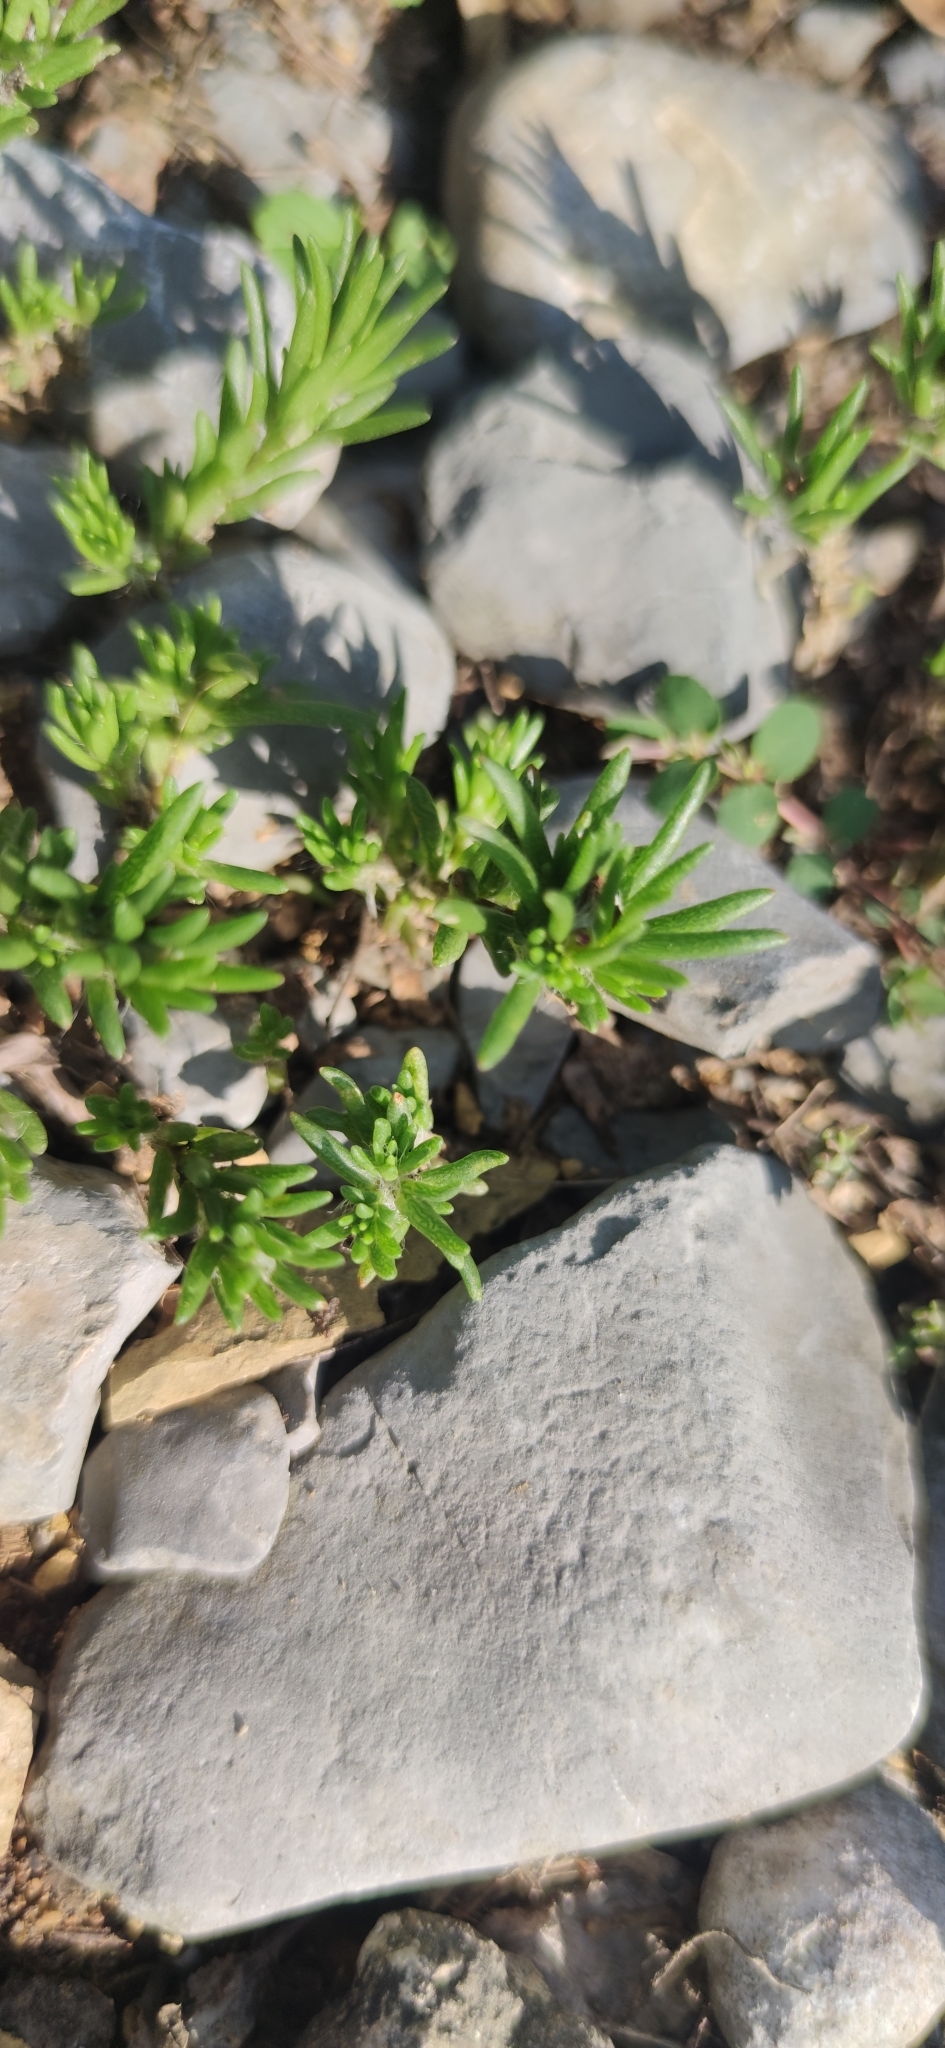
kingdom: Plantae
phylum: Tracheophyta
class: Magnoliopsida
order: Caryophyllales
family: Portulacaceae
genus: Portulaca
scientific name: Portulaca pilosa
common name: Kiss me quick
